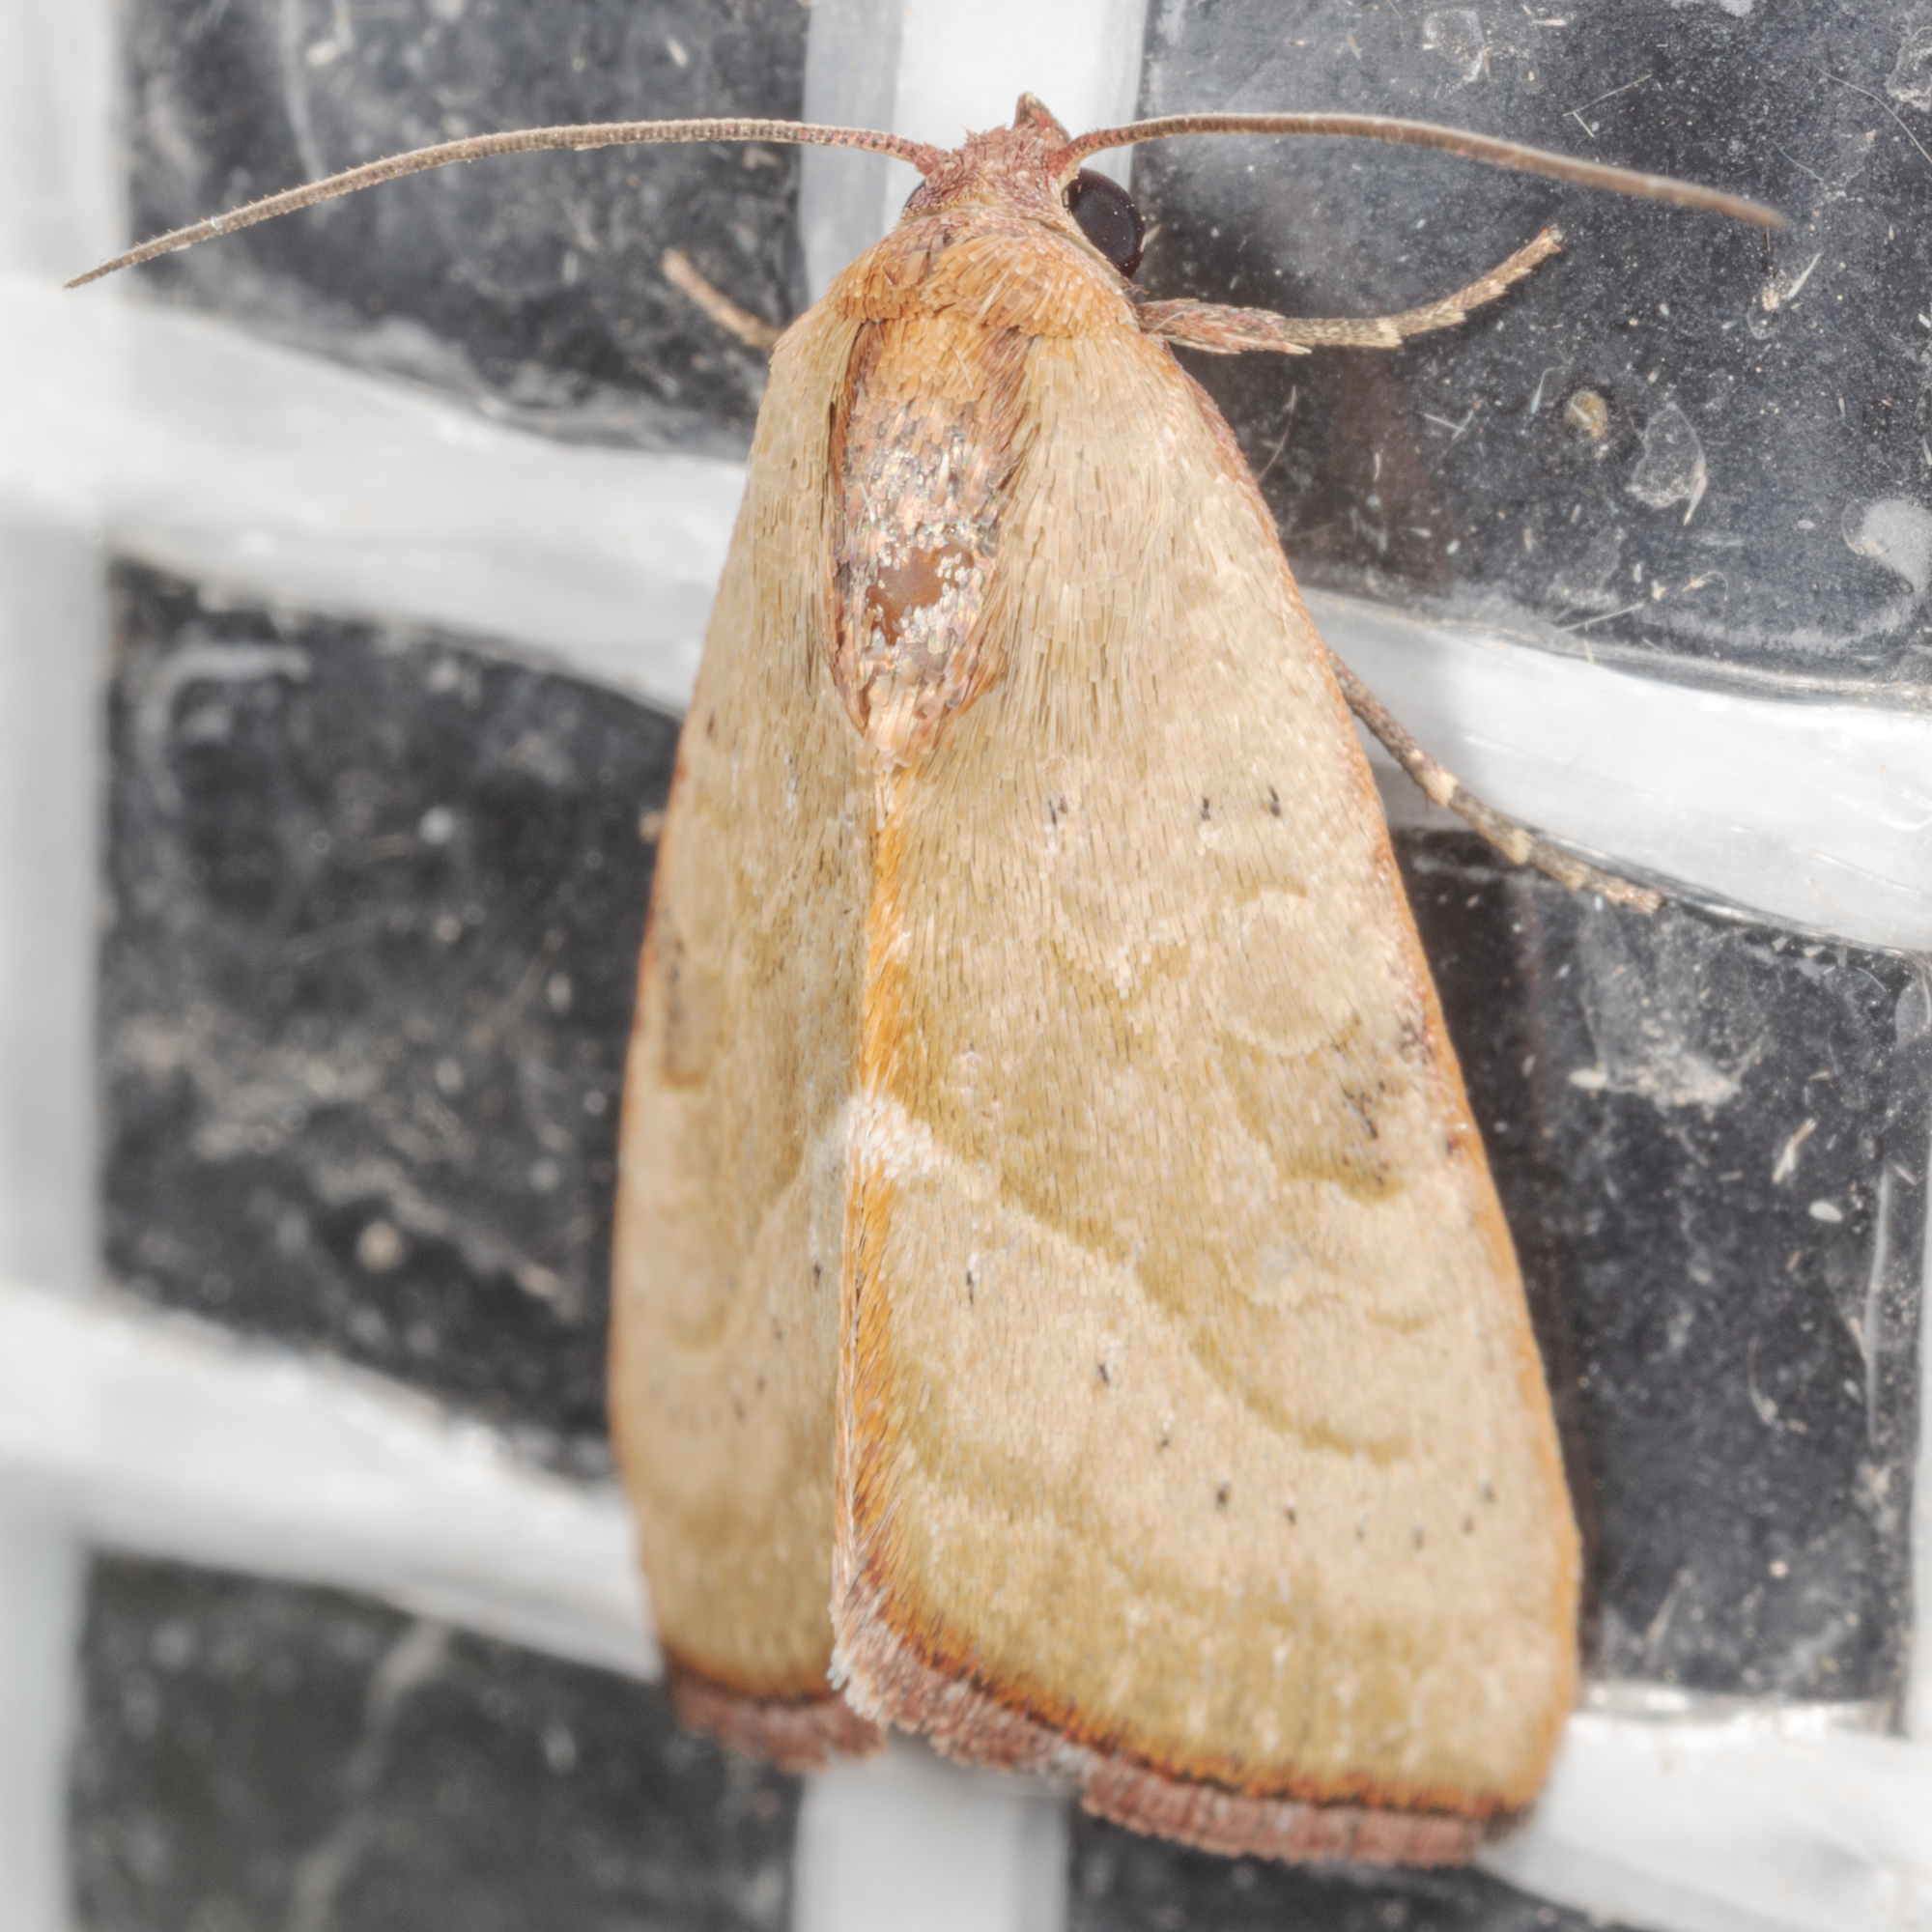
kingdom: Animalia
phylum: Arthropoda
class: Insecta
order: Lepidoptera
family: Noctuidae
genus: Galgula
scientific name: Galgula partita
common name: Wedgeling
